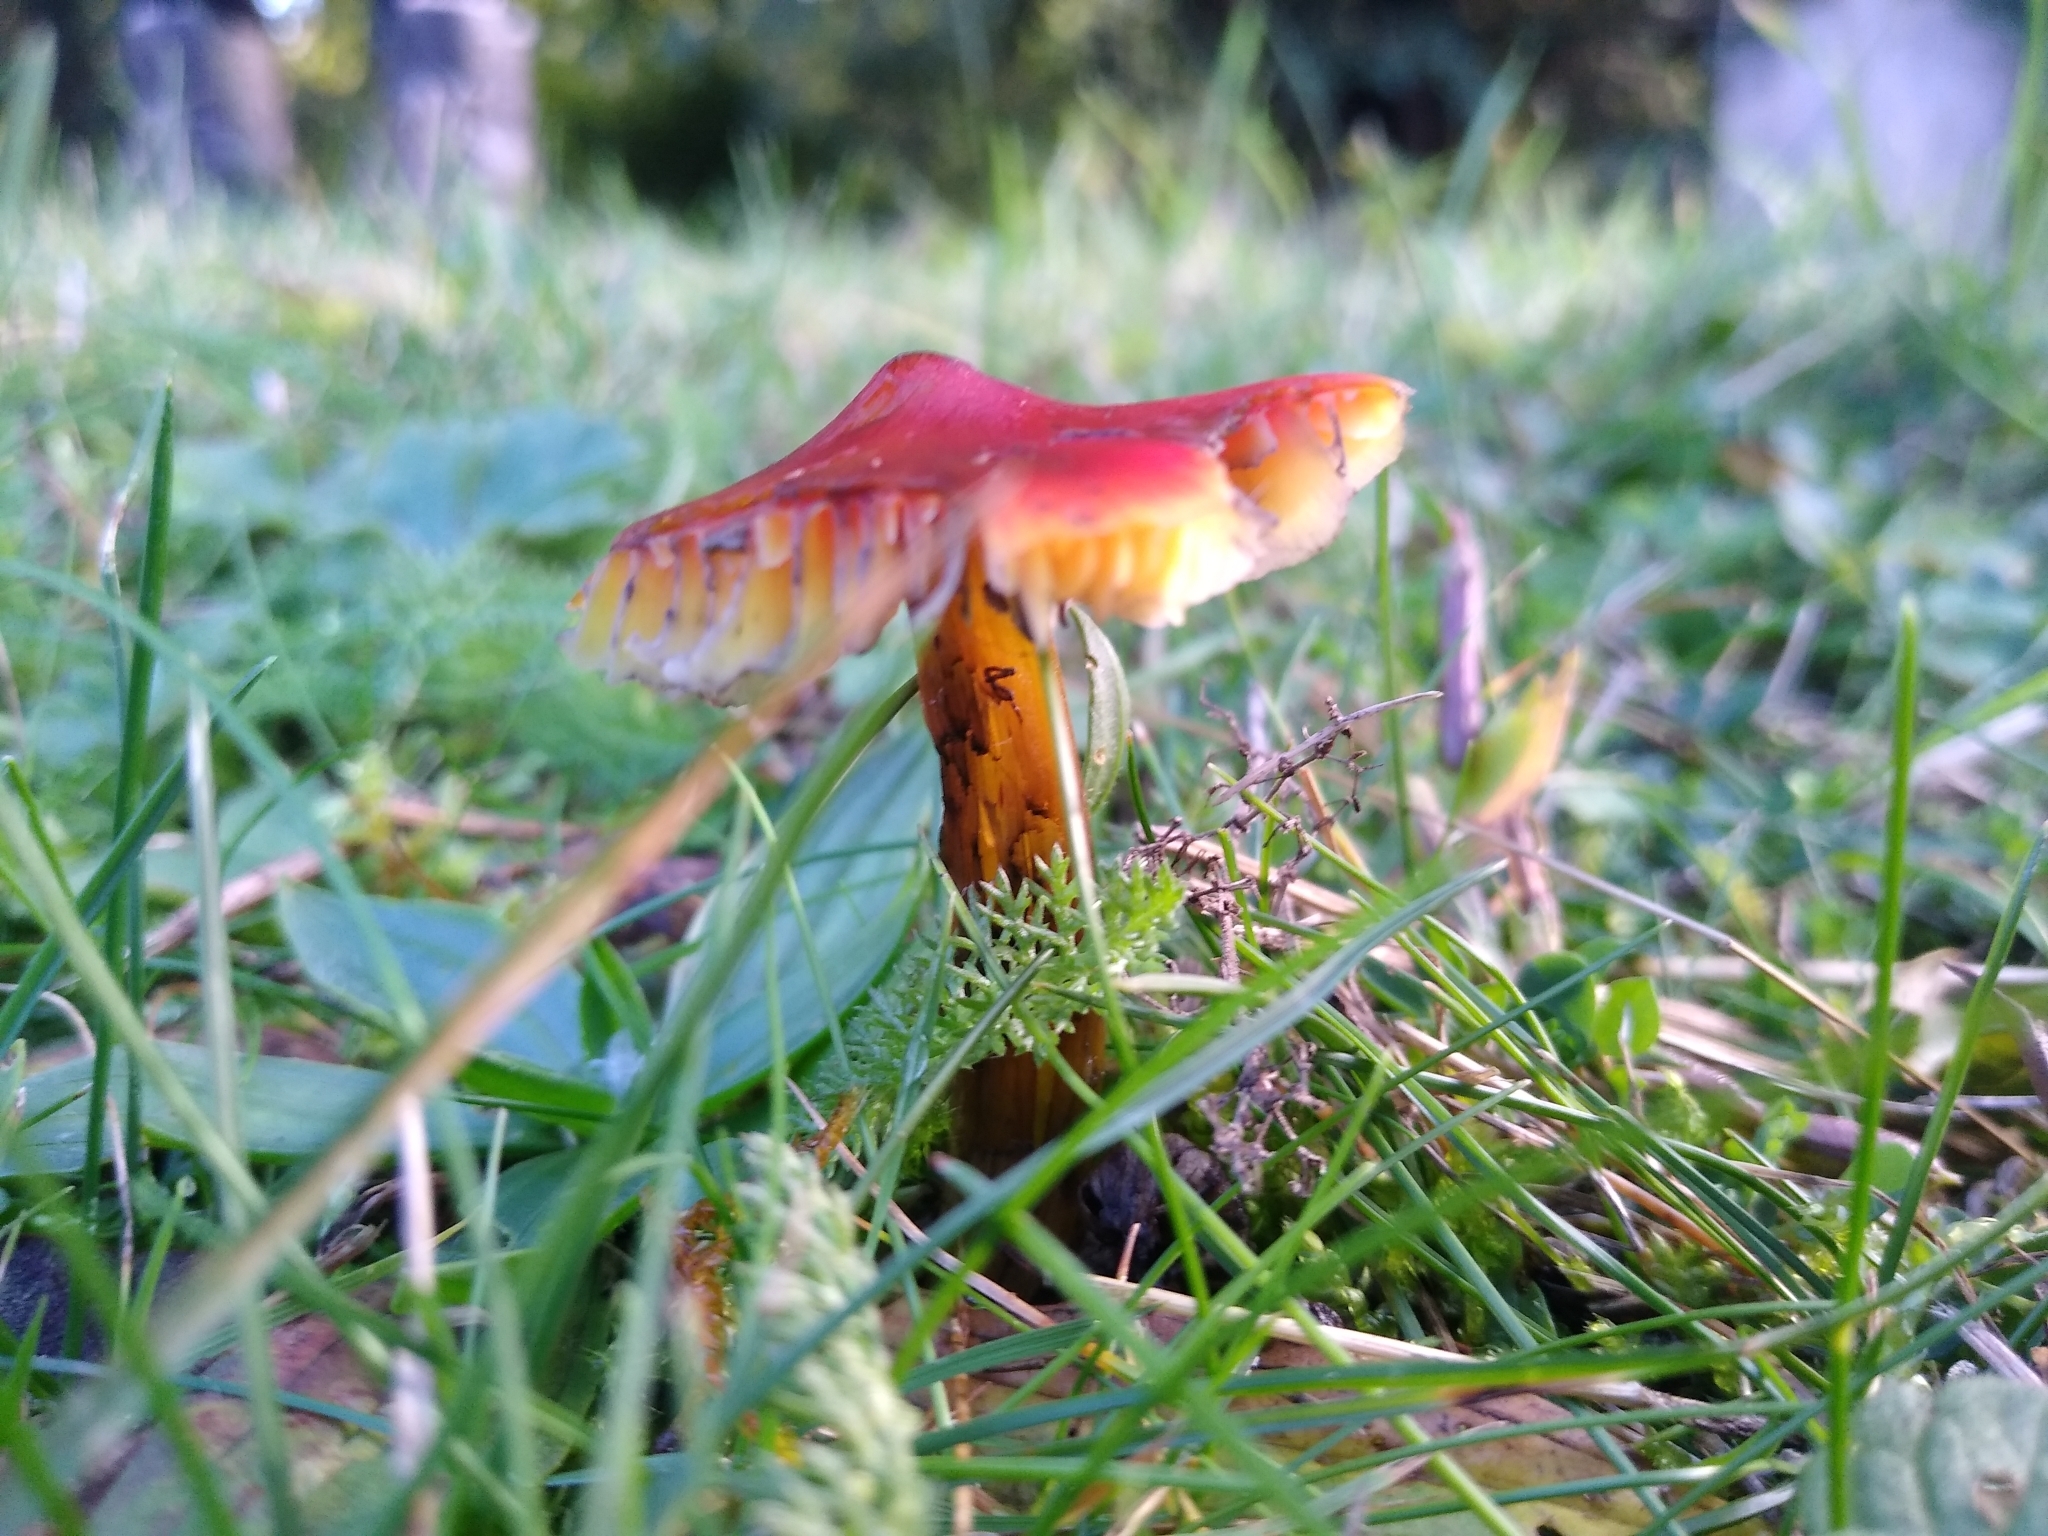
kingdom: Fungi
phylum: Basidiomycota
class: Agaricomycetes
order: Agaricales
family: Hygrophoraceae
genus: Hygrocybe
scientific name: Hygrocybe conica
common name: Blackening wax-cap
